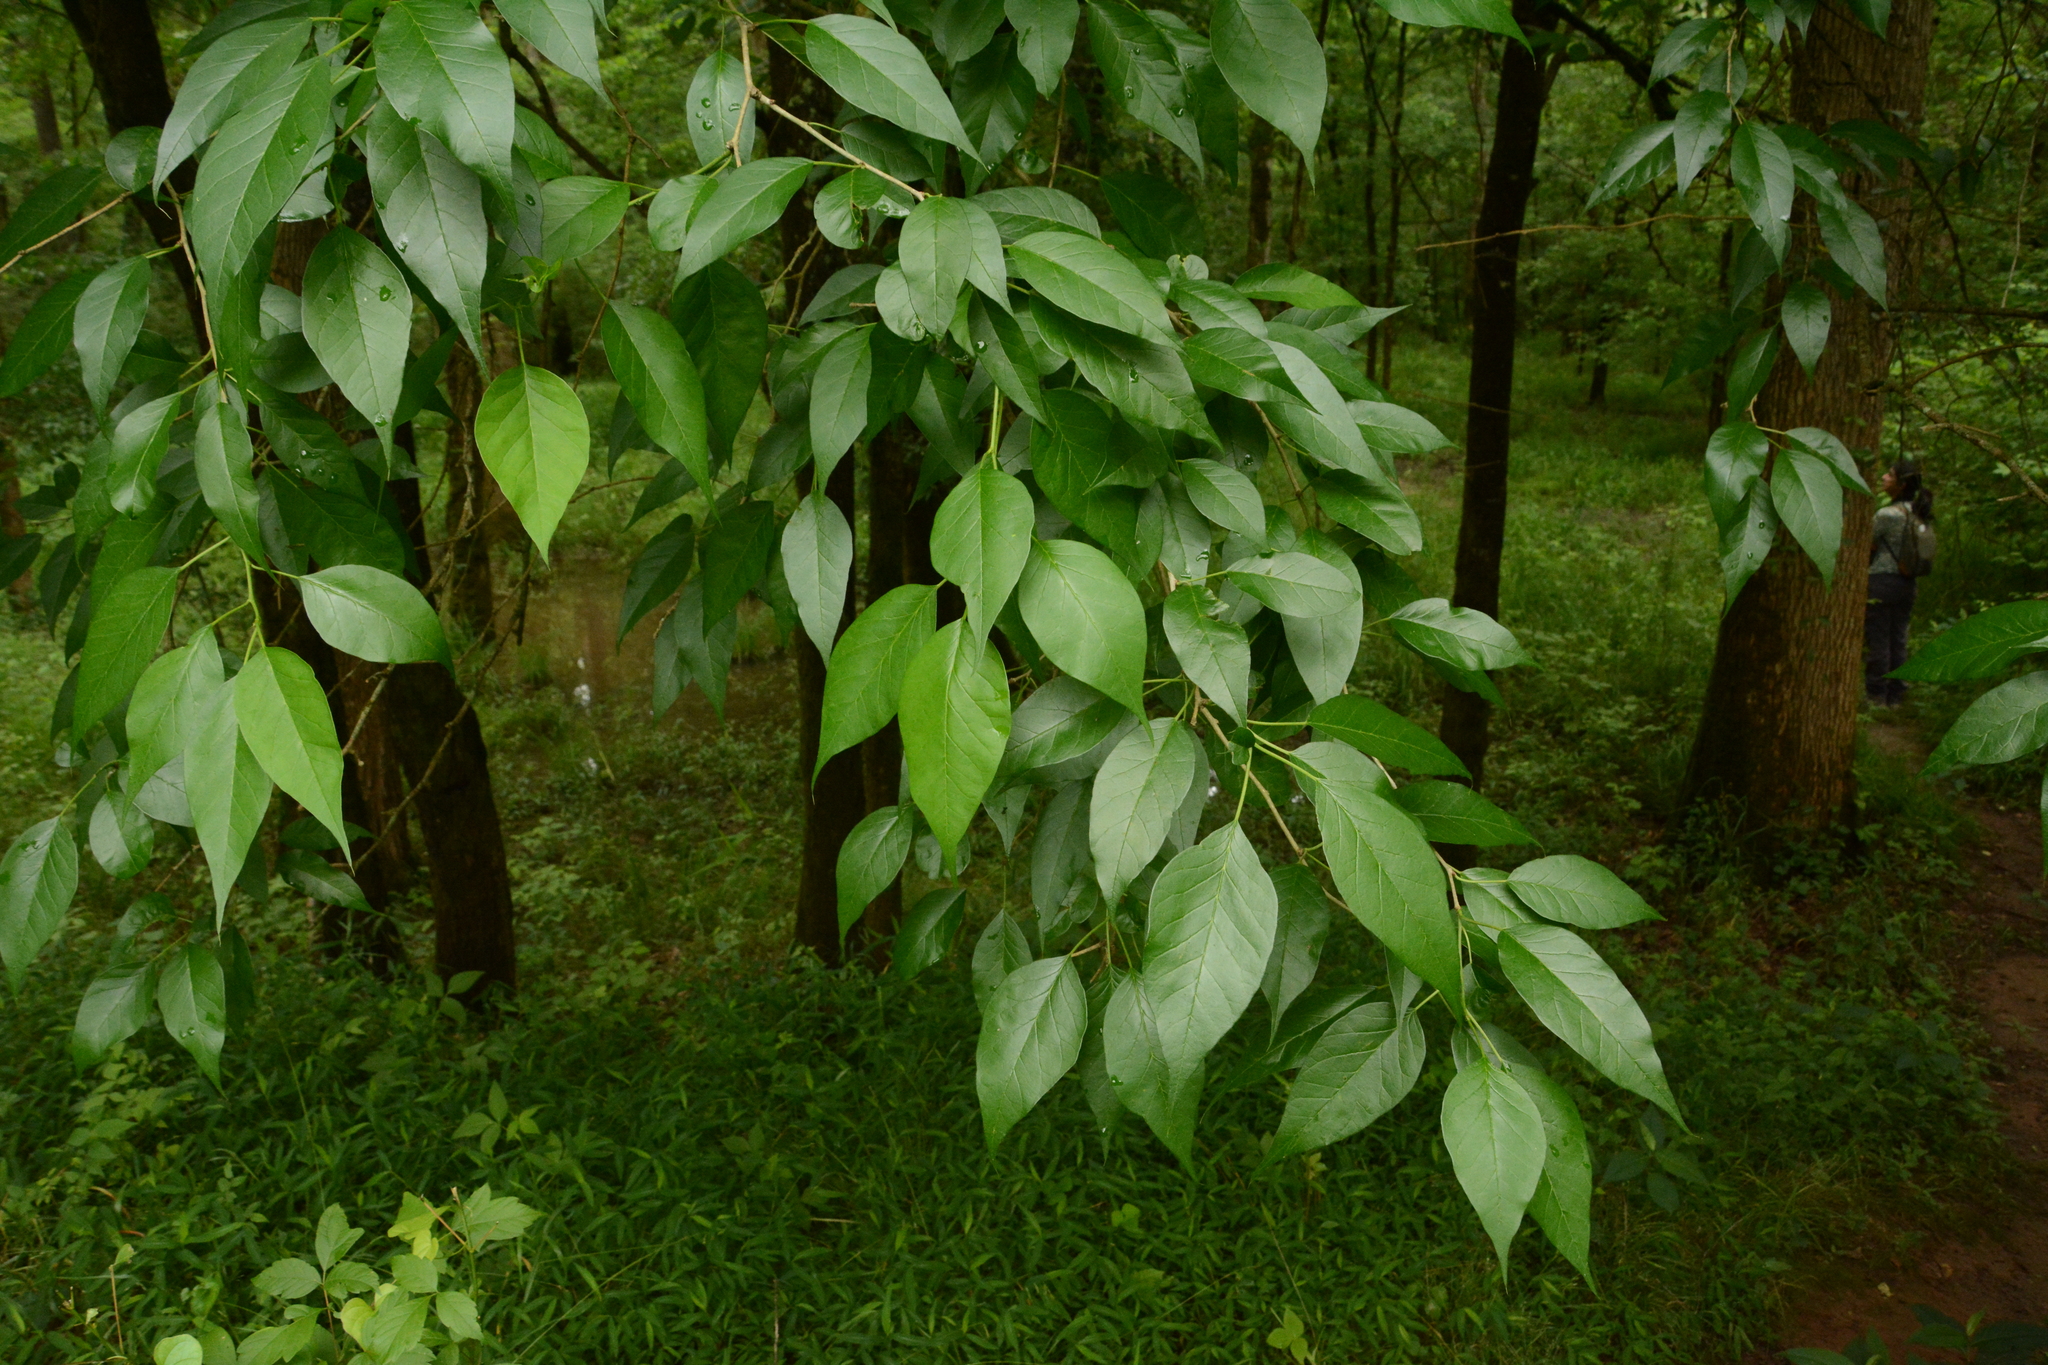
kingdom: Plantae
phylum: Tracheophyta
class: Magnoliopsida
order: Rosales
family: Moraceae
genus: Maclura
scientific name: Maclura pomifera
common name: Osage-orange
